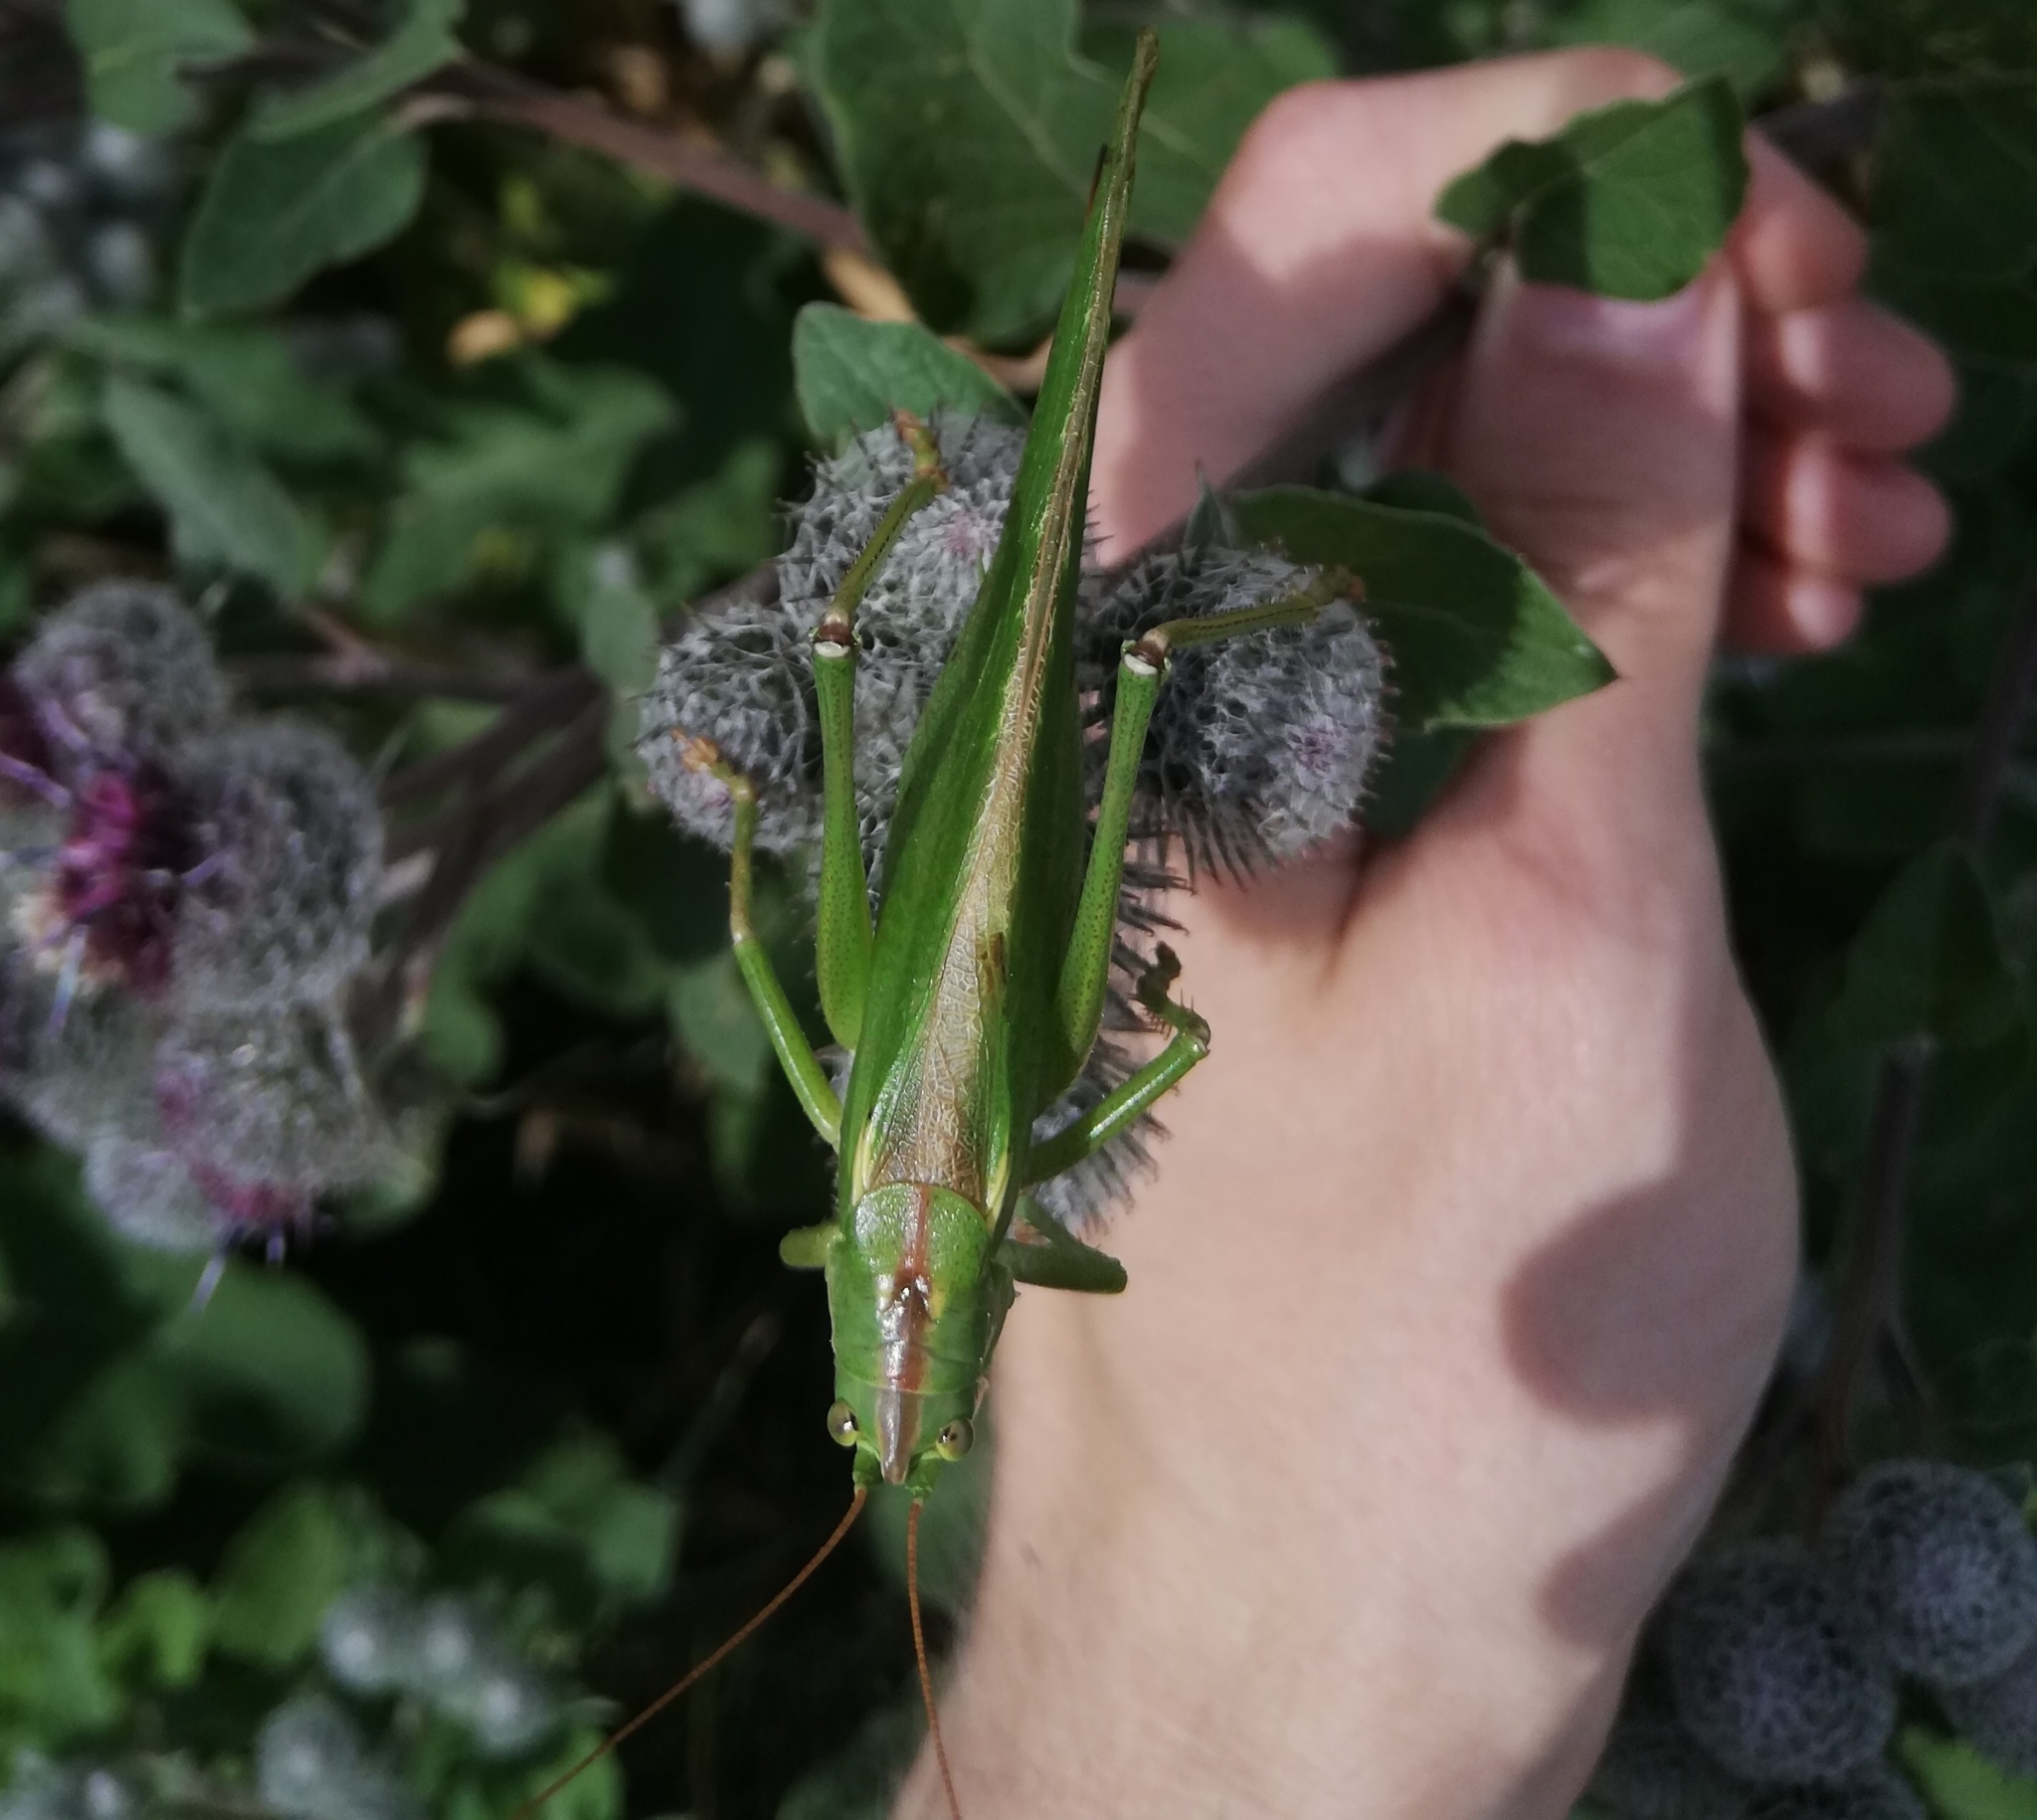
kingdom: Animalia
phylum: Arthropoda
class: Insecta
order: Orthoptera
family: Tettigoniidae
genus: Tettigonia
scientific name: Tettigonia viridissima
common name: Great green bush-cricket
